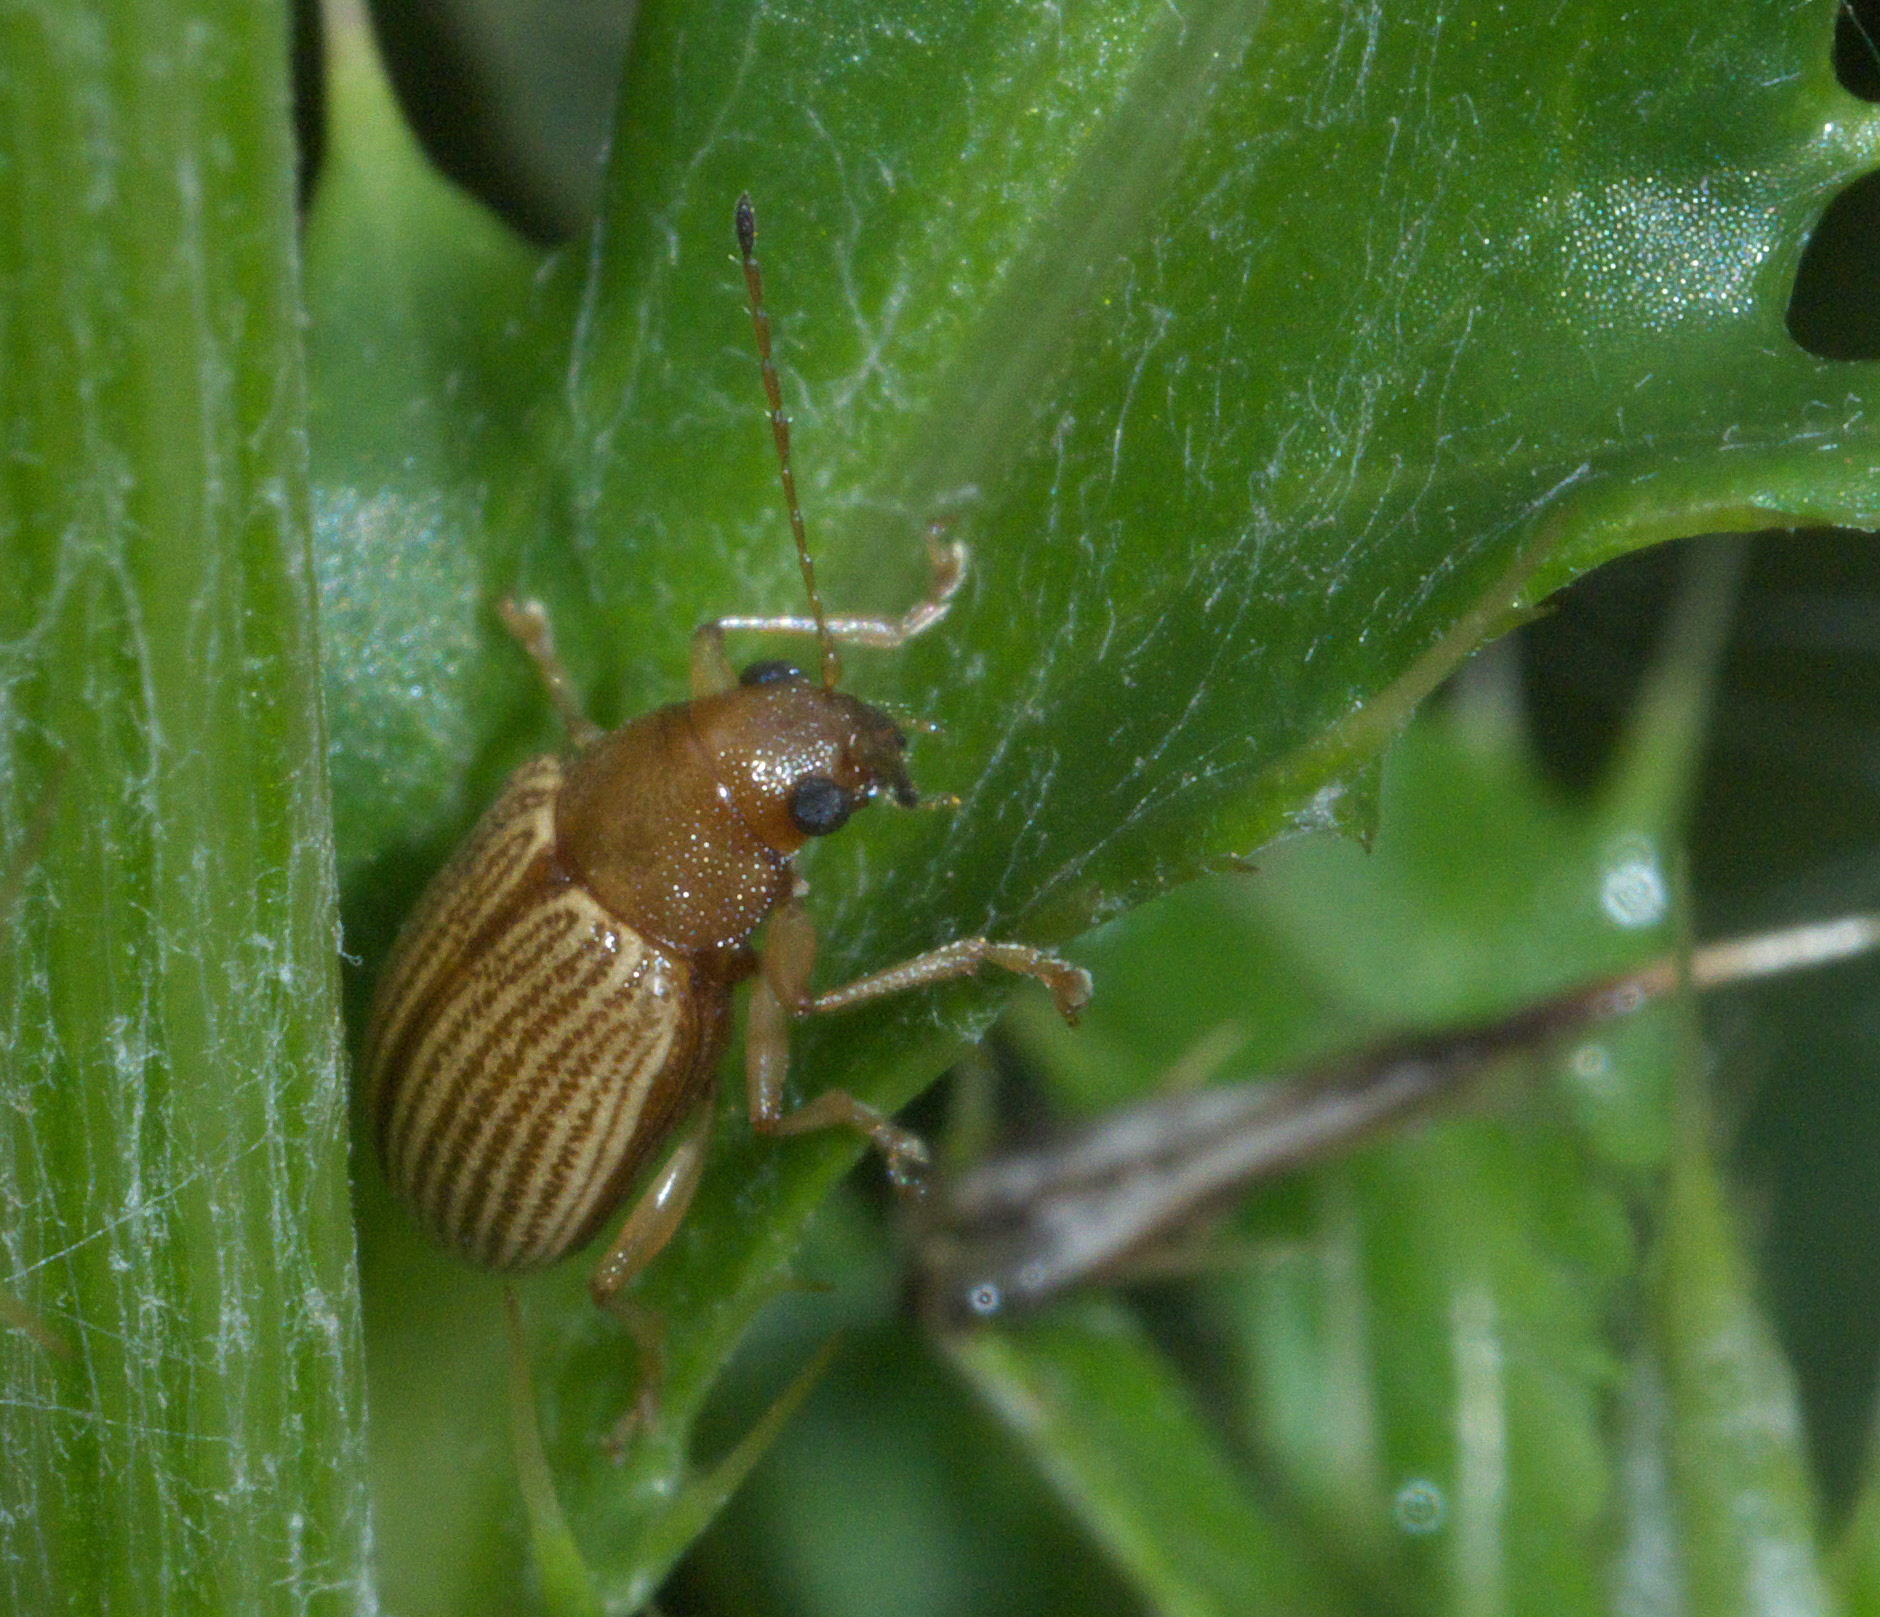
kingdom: Animalia
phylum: Arthropoda
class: Insecta
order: Coleoptera
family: Chrysomelidae
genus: Colaspis
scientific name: Colaspis brunnea
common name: Grape colaspis
